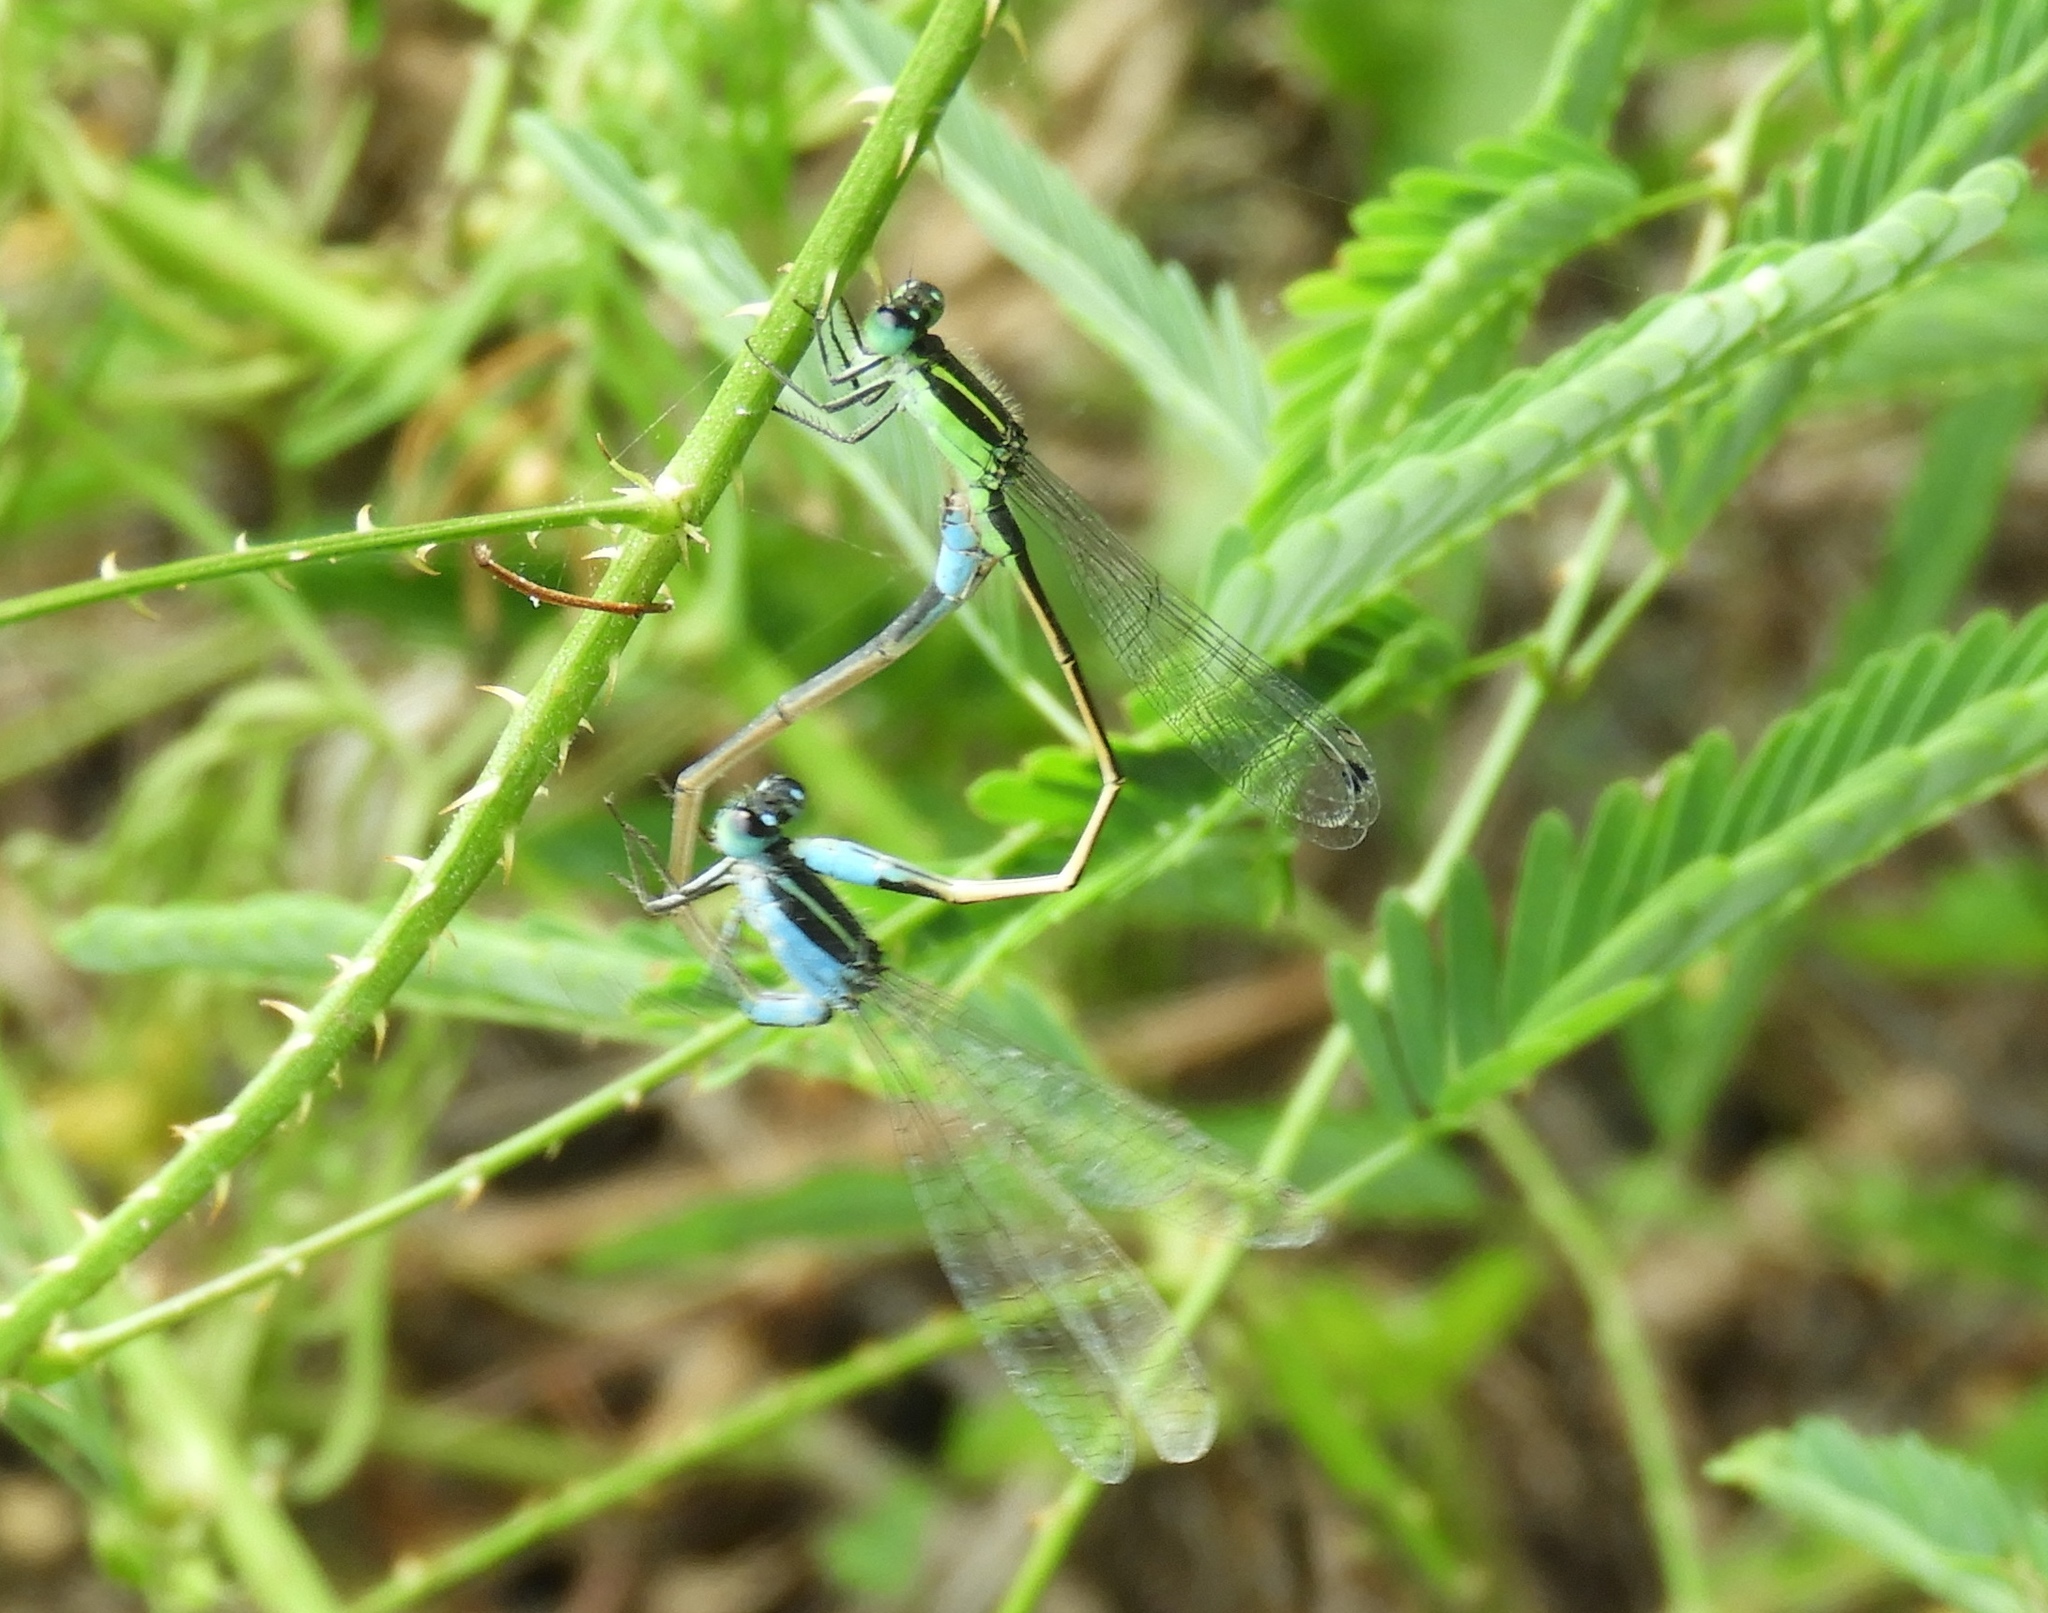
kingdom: Animalia
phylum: Arthropoda
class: Insecta
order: Odonata
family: Coenagrionidae
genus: Ischnura
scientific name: Ischnura ramburii
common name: Rambur's forktail
